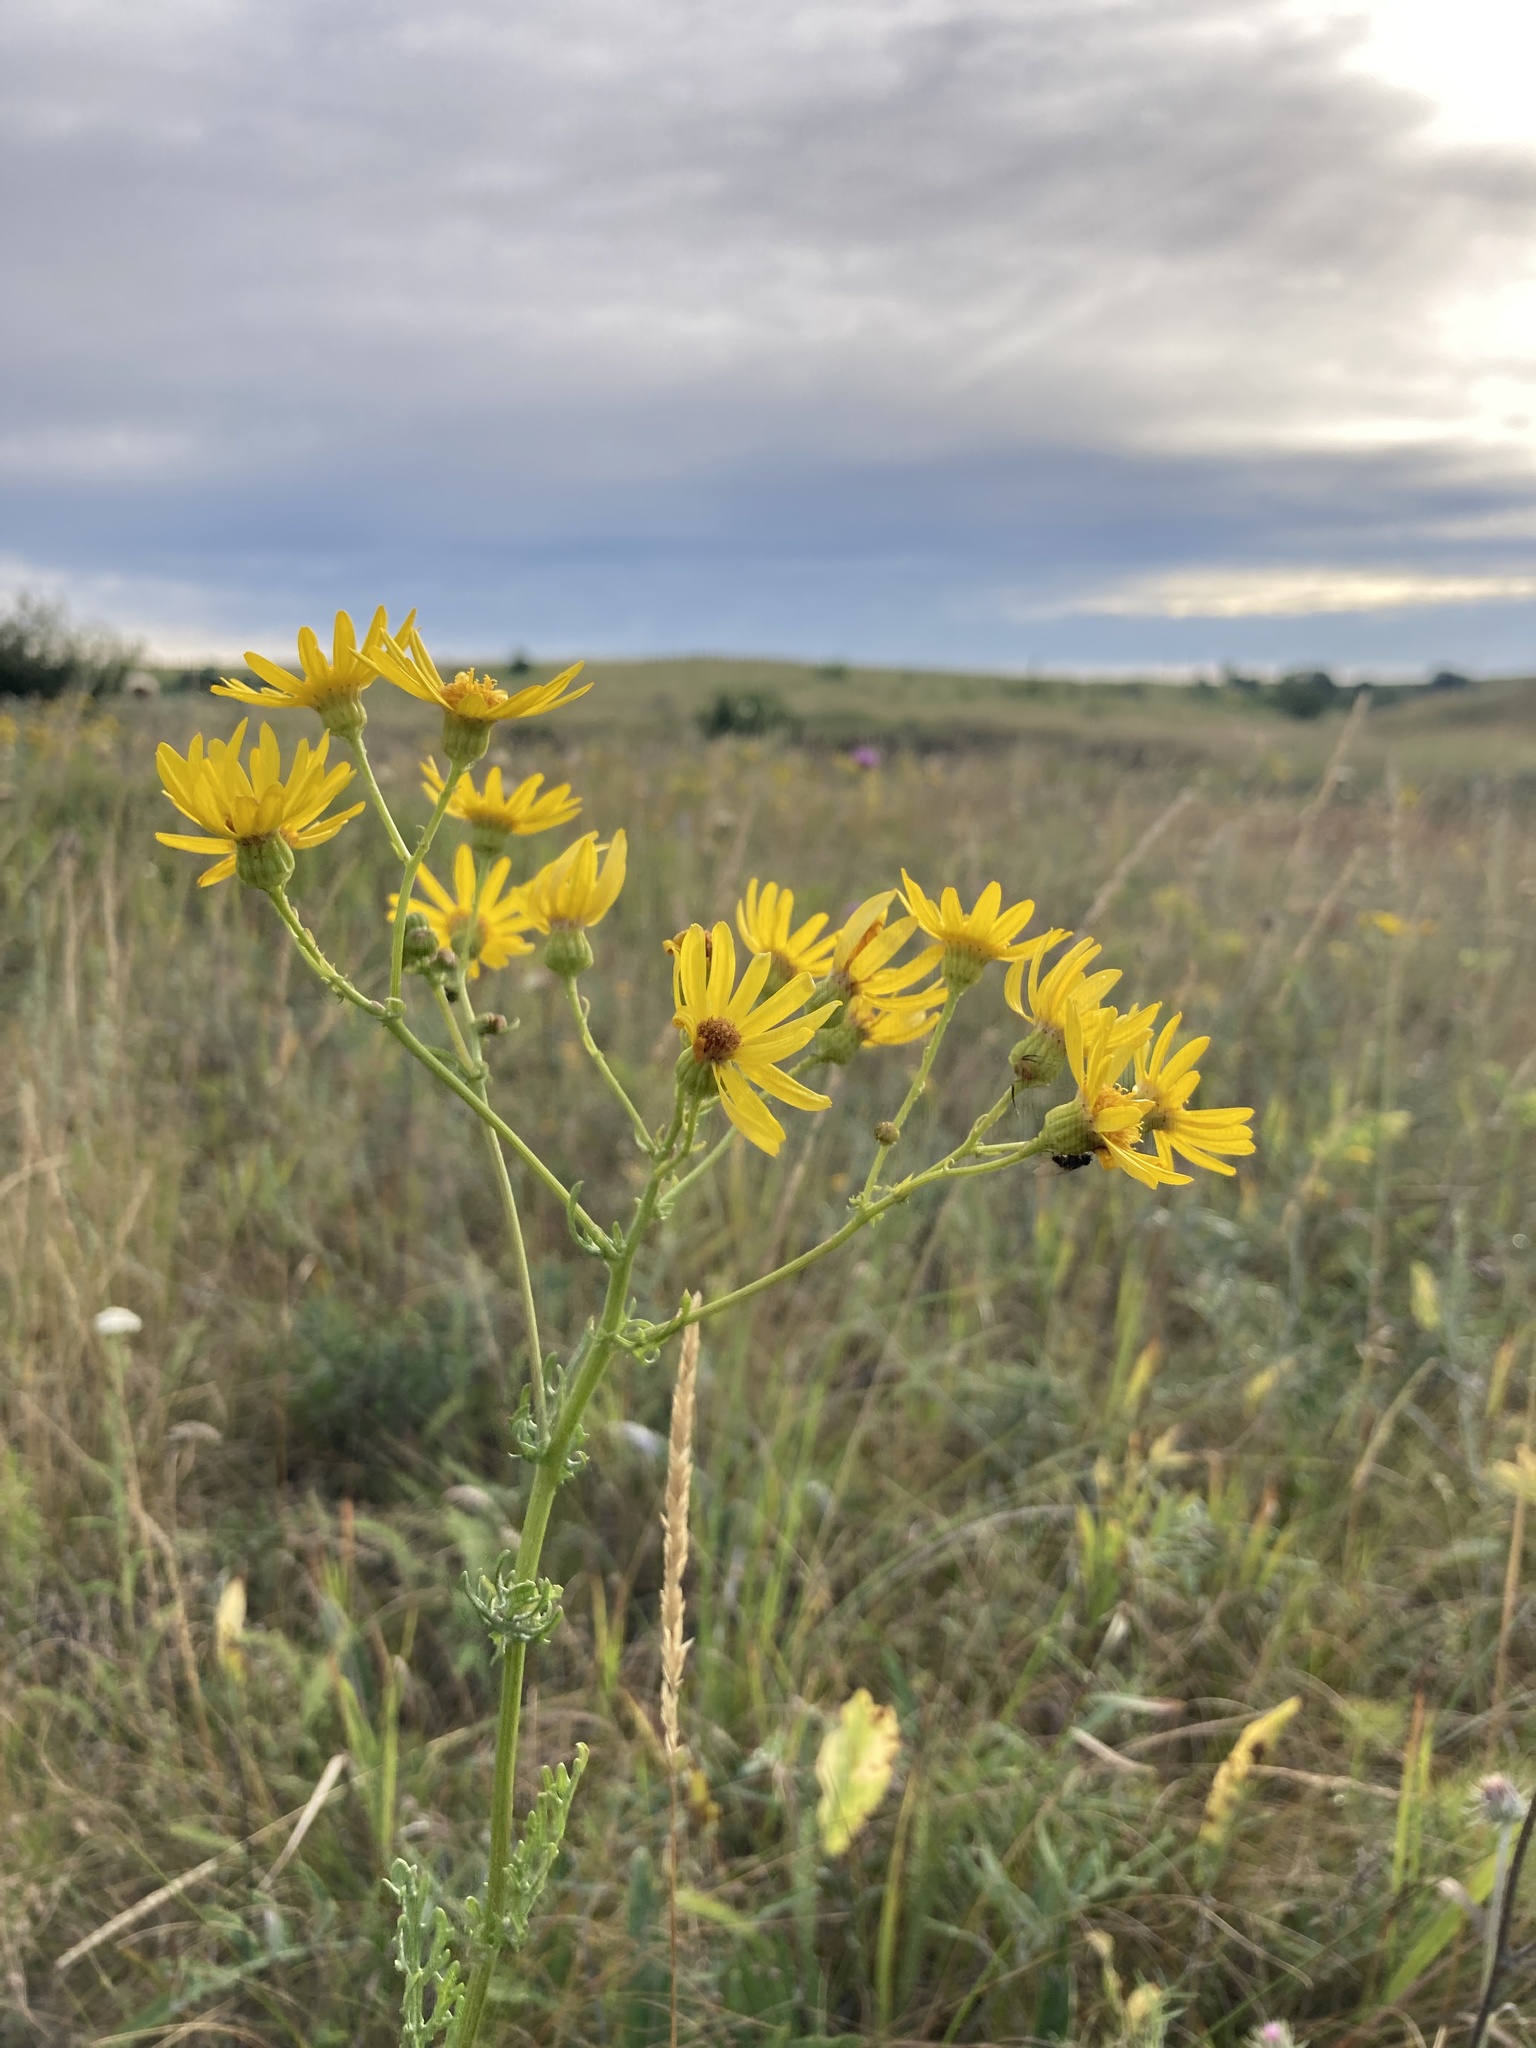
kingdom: Plantae
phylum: Tracheophyta
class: Magnoliopsida
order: Asterales
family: Asteraceae
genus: Jacobaea
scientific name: Jacobaea vulgaris
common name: Stinking willie
